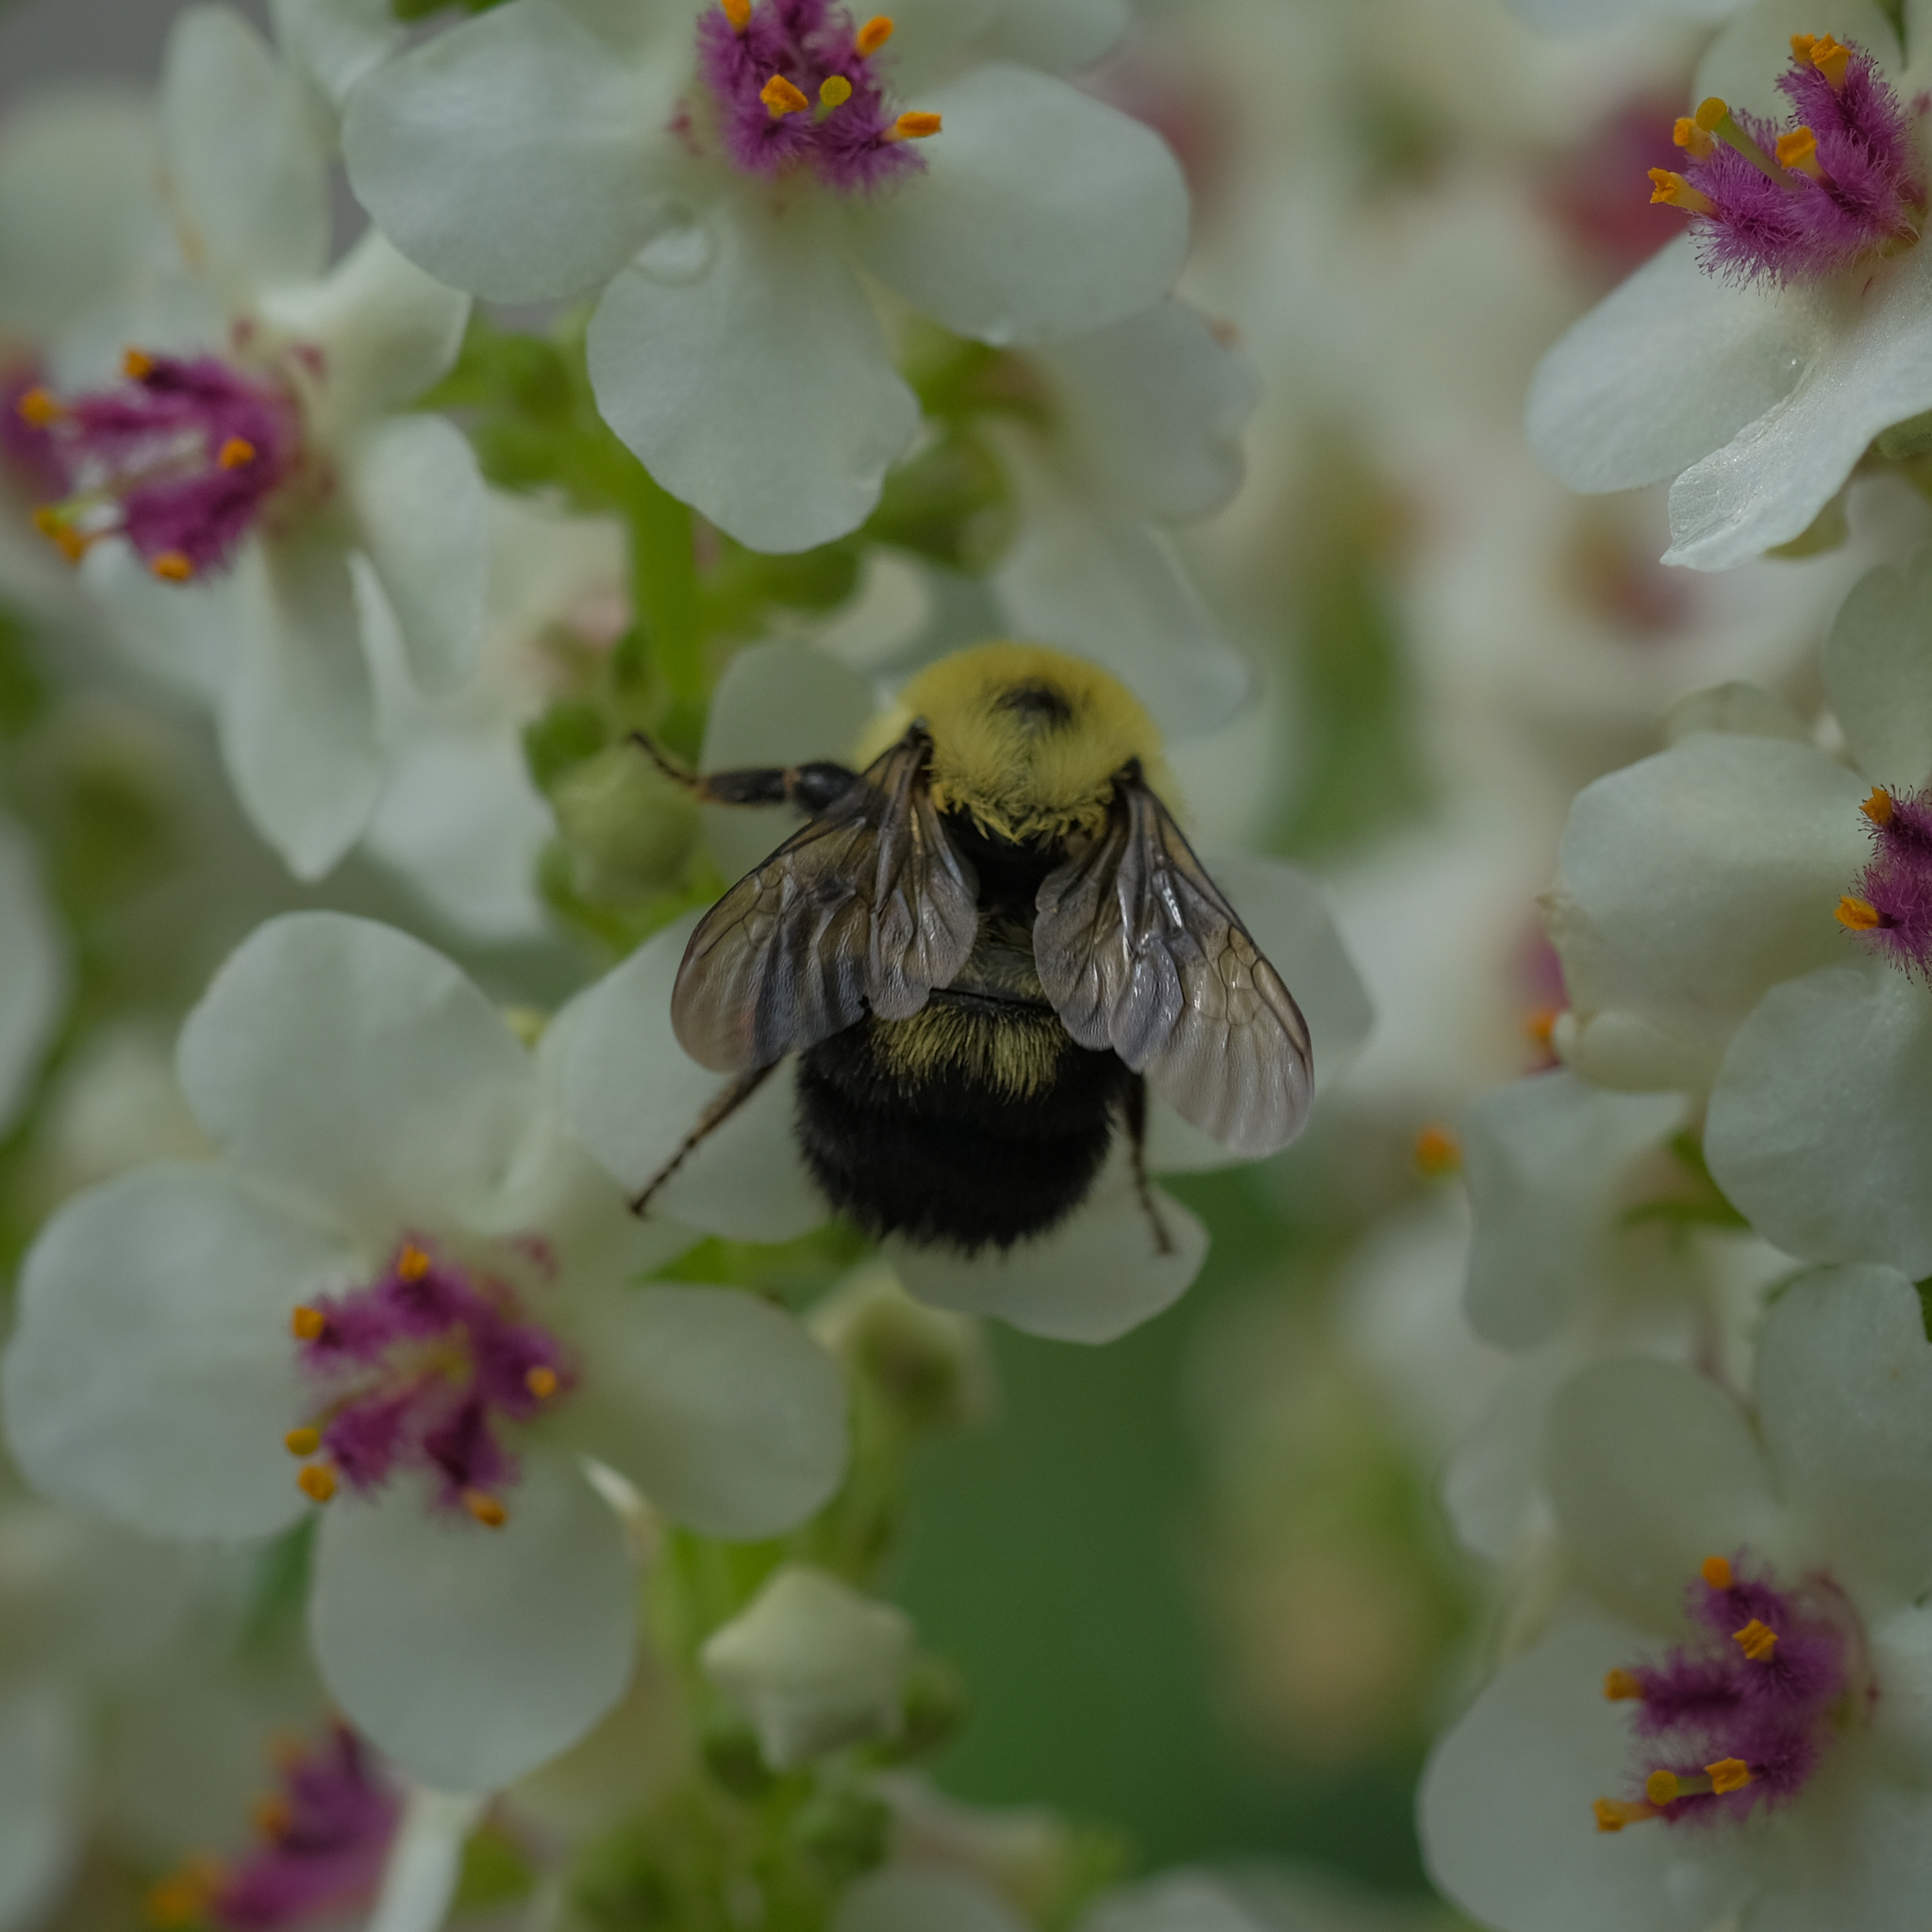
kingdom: Animalia
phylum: Arthropoda
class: Insecta
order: Hymenoptera
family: Apidae
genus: Bombus
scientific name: Bombus bimaculatus
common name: Two-spotted bumble bee
